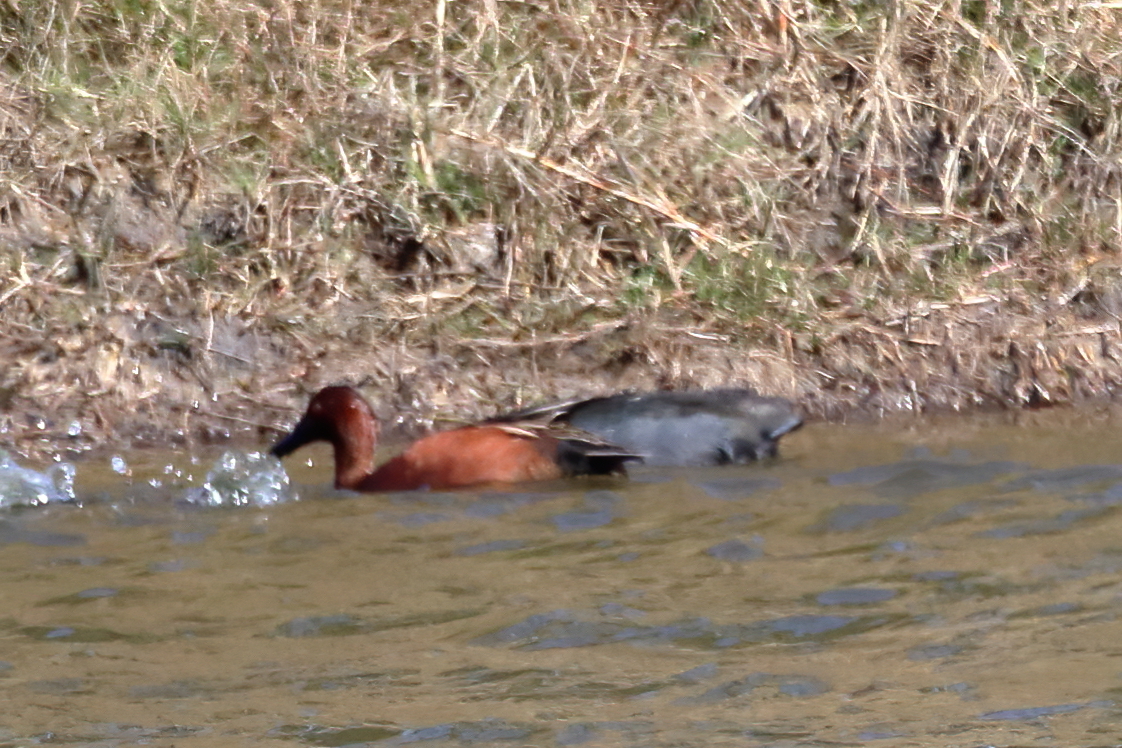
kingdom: Animalia
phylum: Chordata
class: Aves
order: Anseriformes
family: Anatidae
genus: Spatula
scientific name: Spatula cyanoptera
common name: Cinnamon teal
